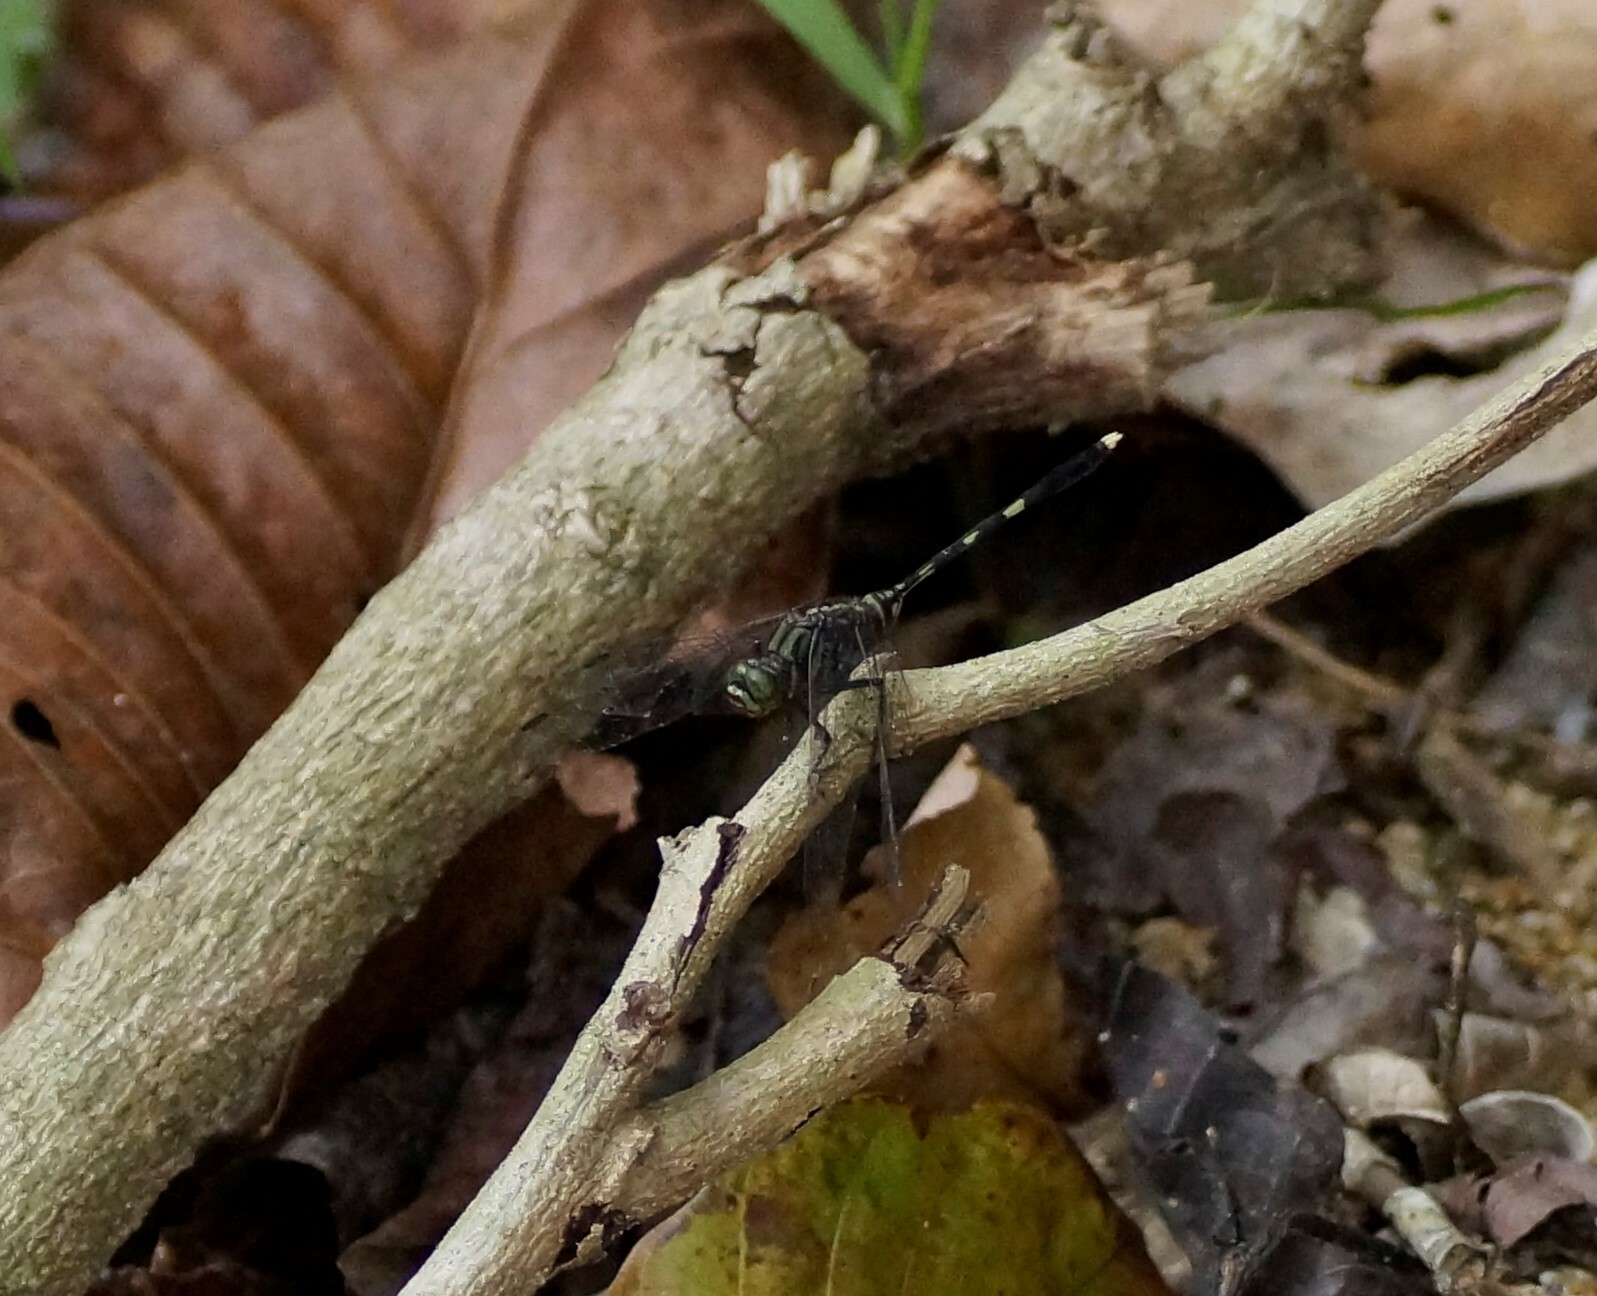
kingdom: Animalia
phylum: Arthropoda
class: Insecta
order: Odonata
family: Libellulidae
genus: Orthetrum
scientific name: Orthetrum serapia
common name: Green skimmer
